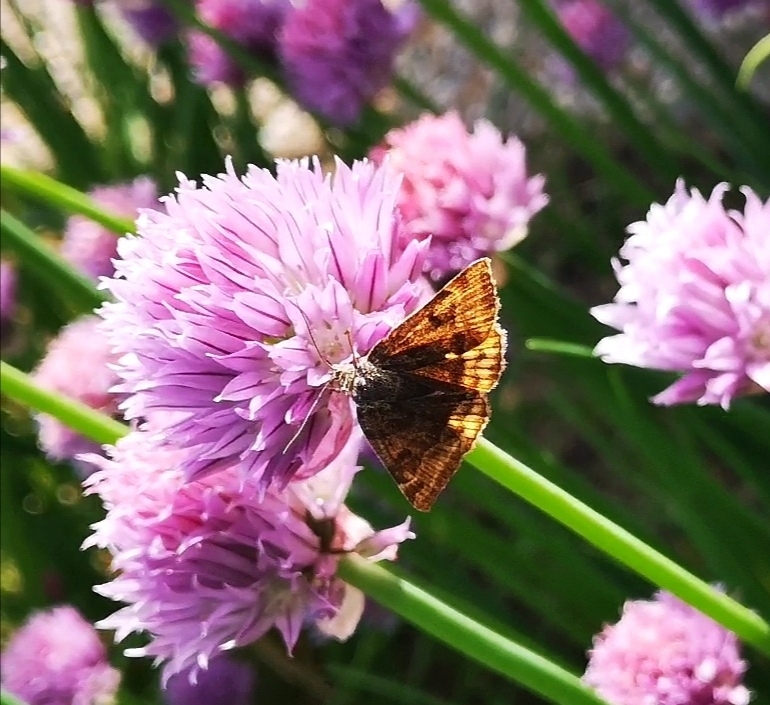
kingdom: Animalia
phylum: Arthropoda
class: Insecta
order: Lepidoptera
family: Erebidae
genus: Euclidia
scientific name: Euclidia glyphica
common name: Burnet companion
